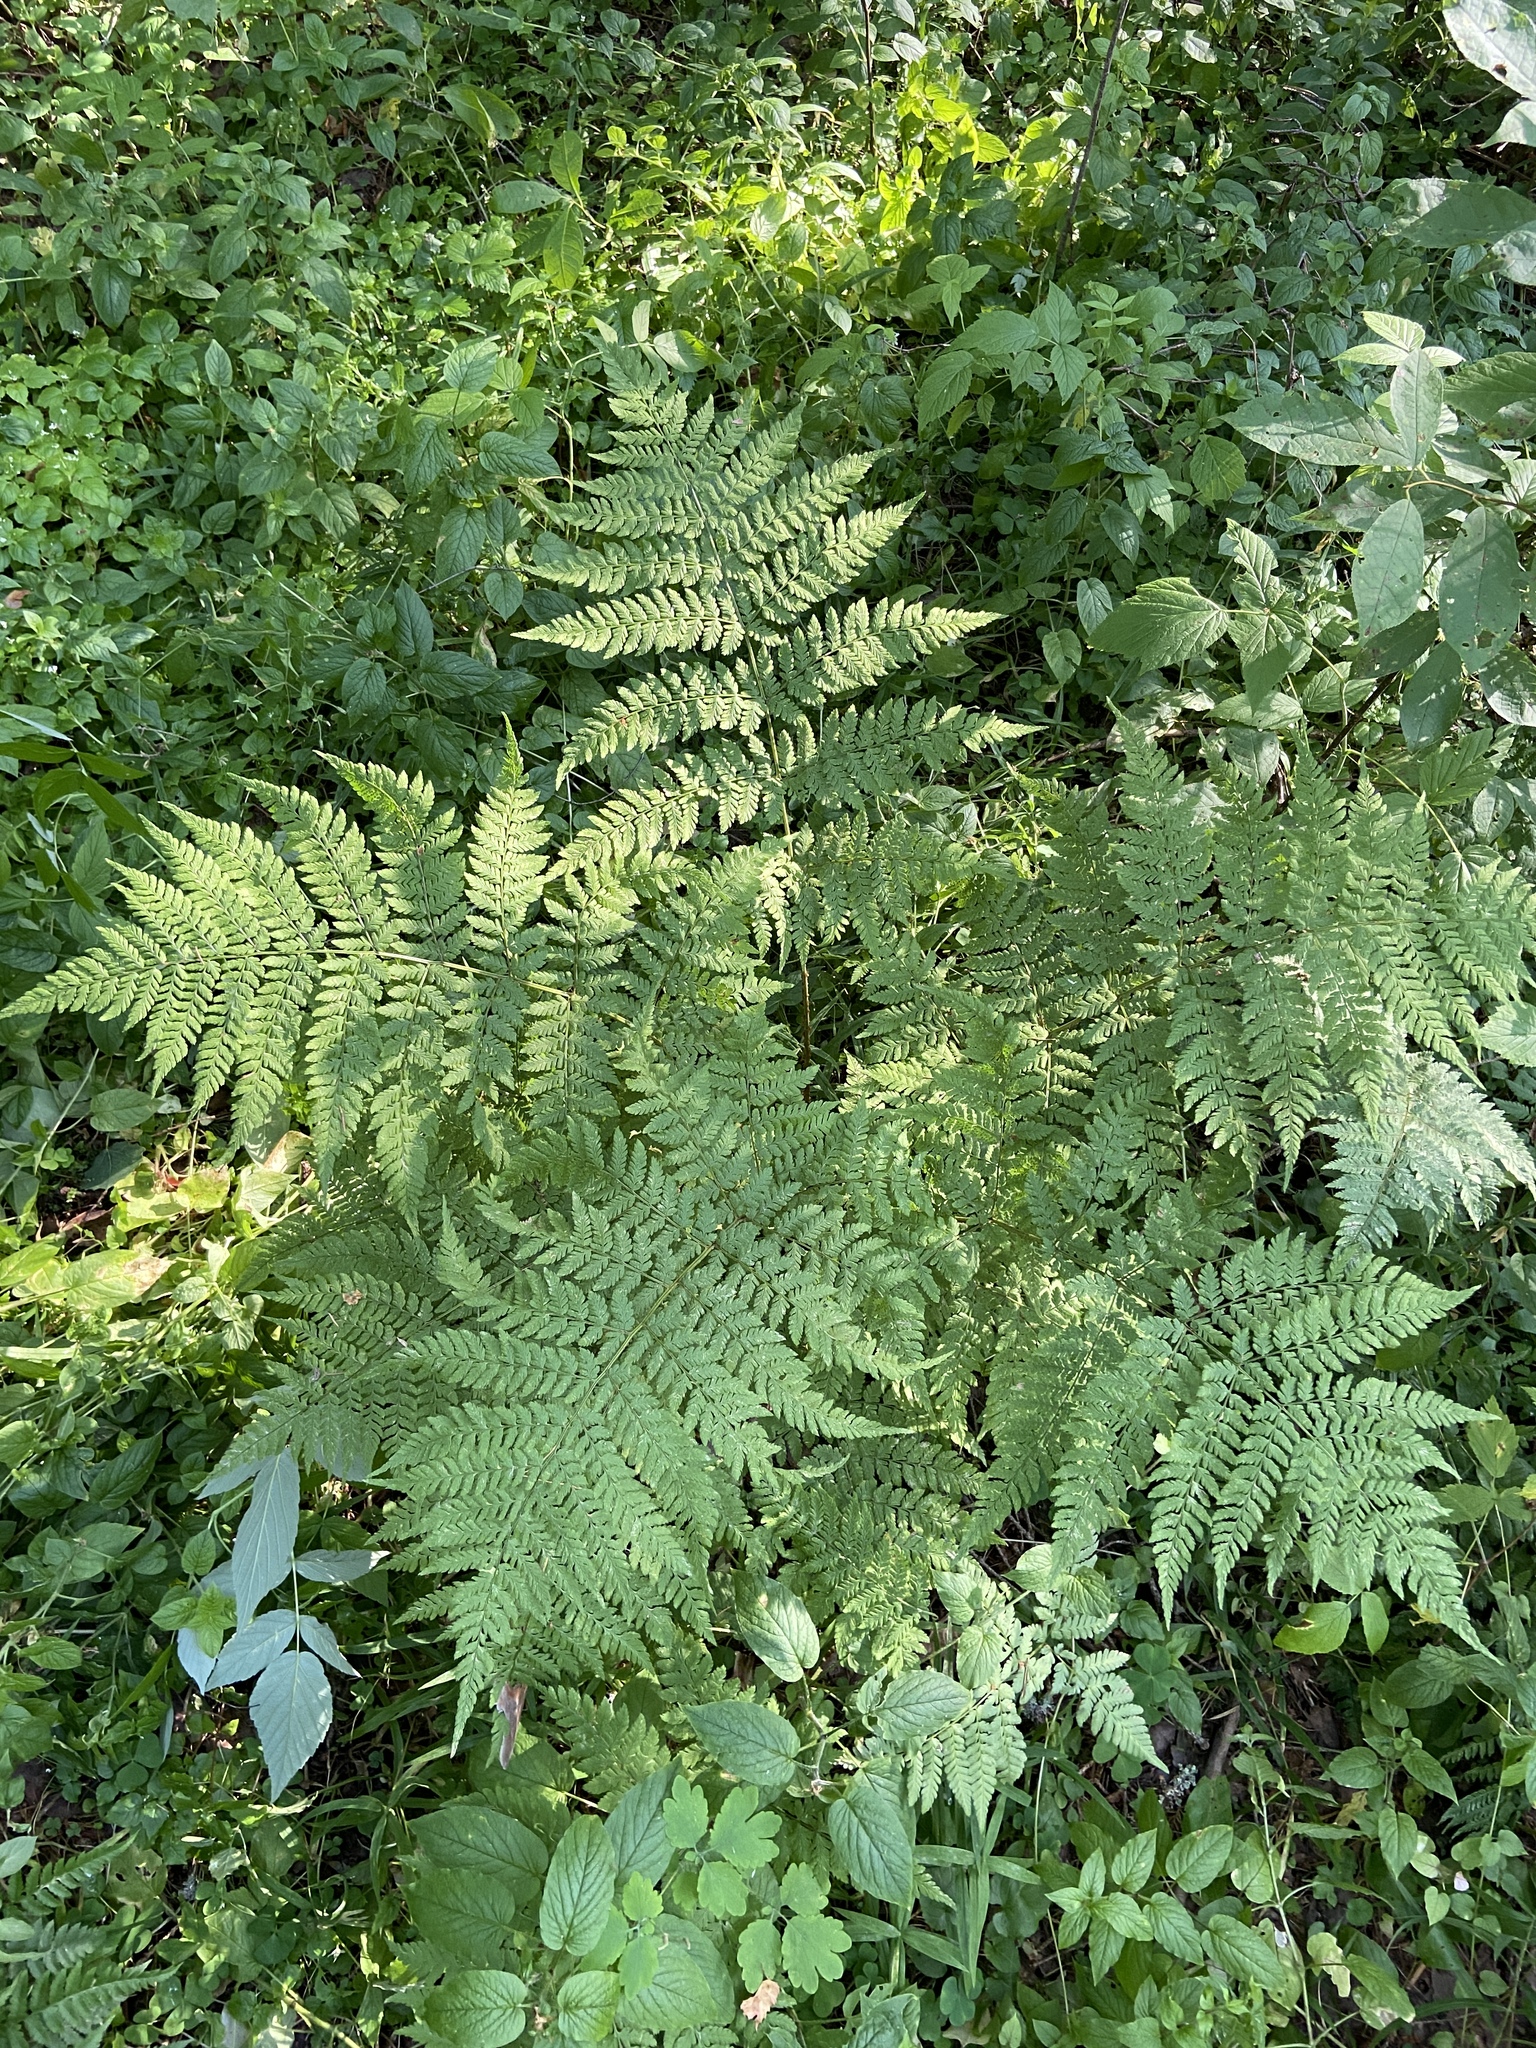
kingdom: Plantae
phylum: Tracheophyta
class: Polypodiopsida
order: Polypodiales
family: Dryopteridaceae
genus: Dryopteris
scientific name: Dryopteris expansa
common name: Northern buckler fern
